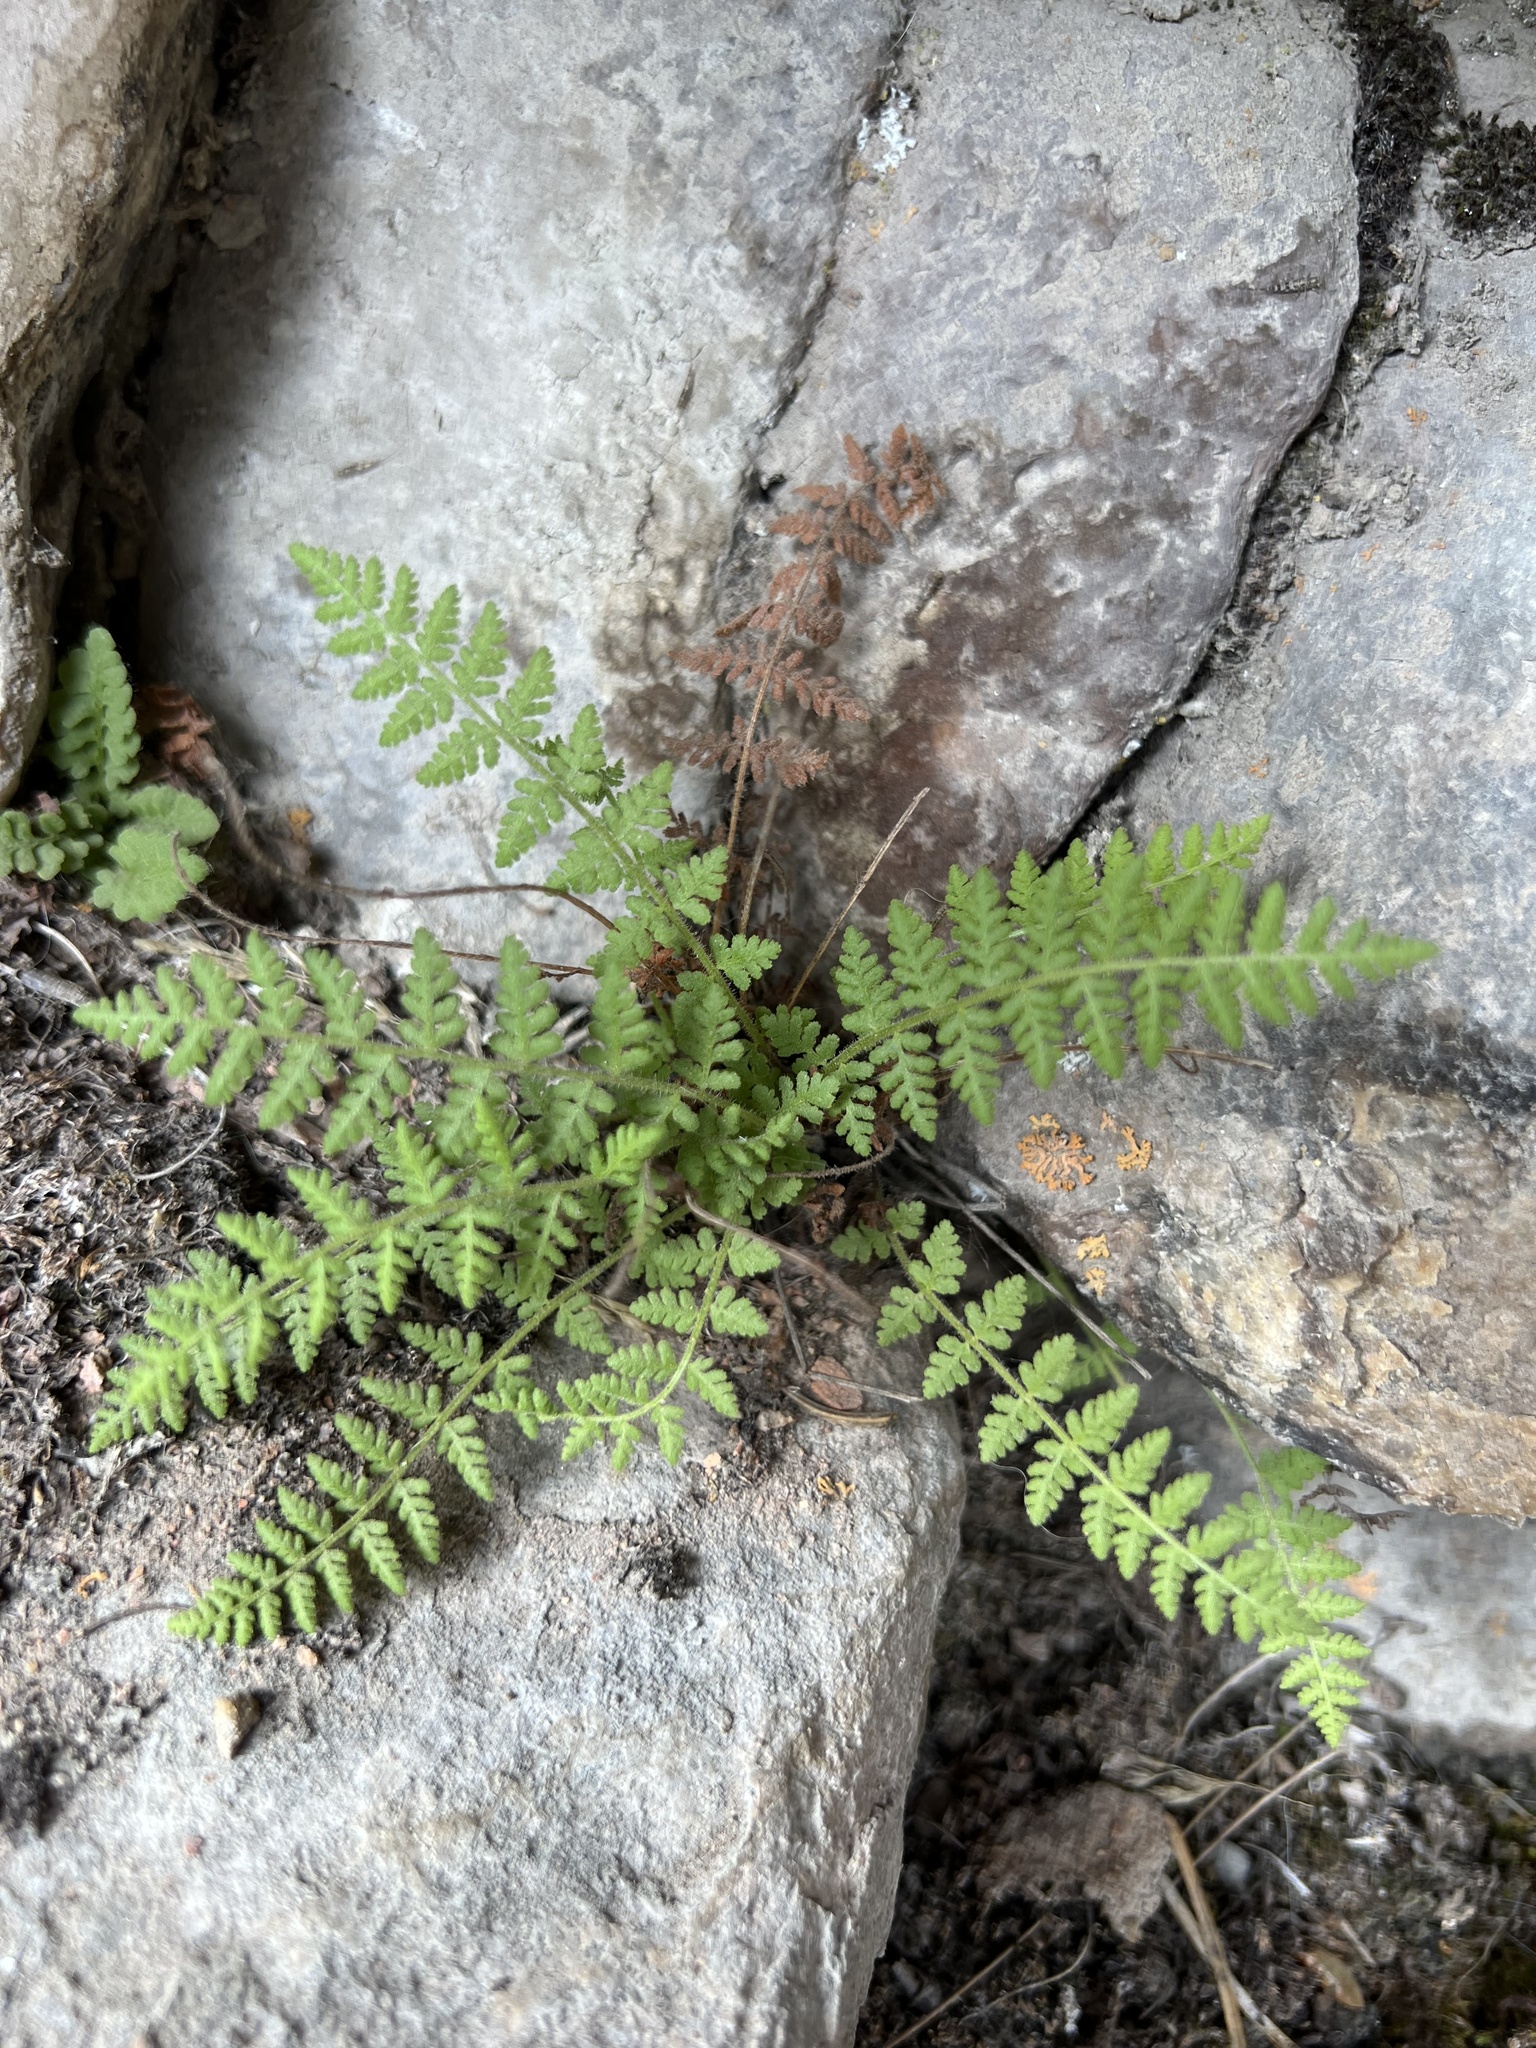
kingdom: Plantae
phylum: Tracheophyta
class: Polypodiopsida
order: Polypodiales
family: Woodsiaceae
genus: Physematium
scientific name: Physematium scopulinum
